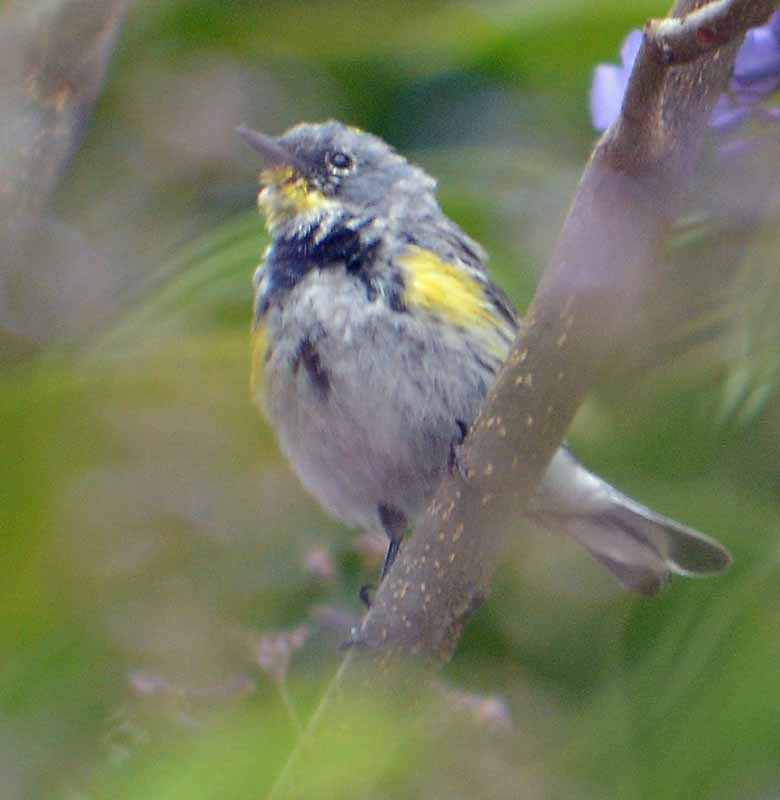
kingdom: Animalia
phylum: Chordata
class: Aves
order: Passeriformes
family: Parulidae
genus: Setophaga
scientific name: Setophaga coronata
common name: Myrtle warbler
